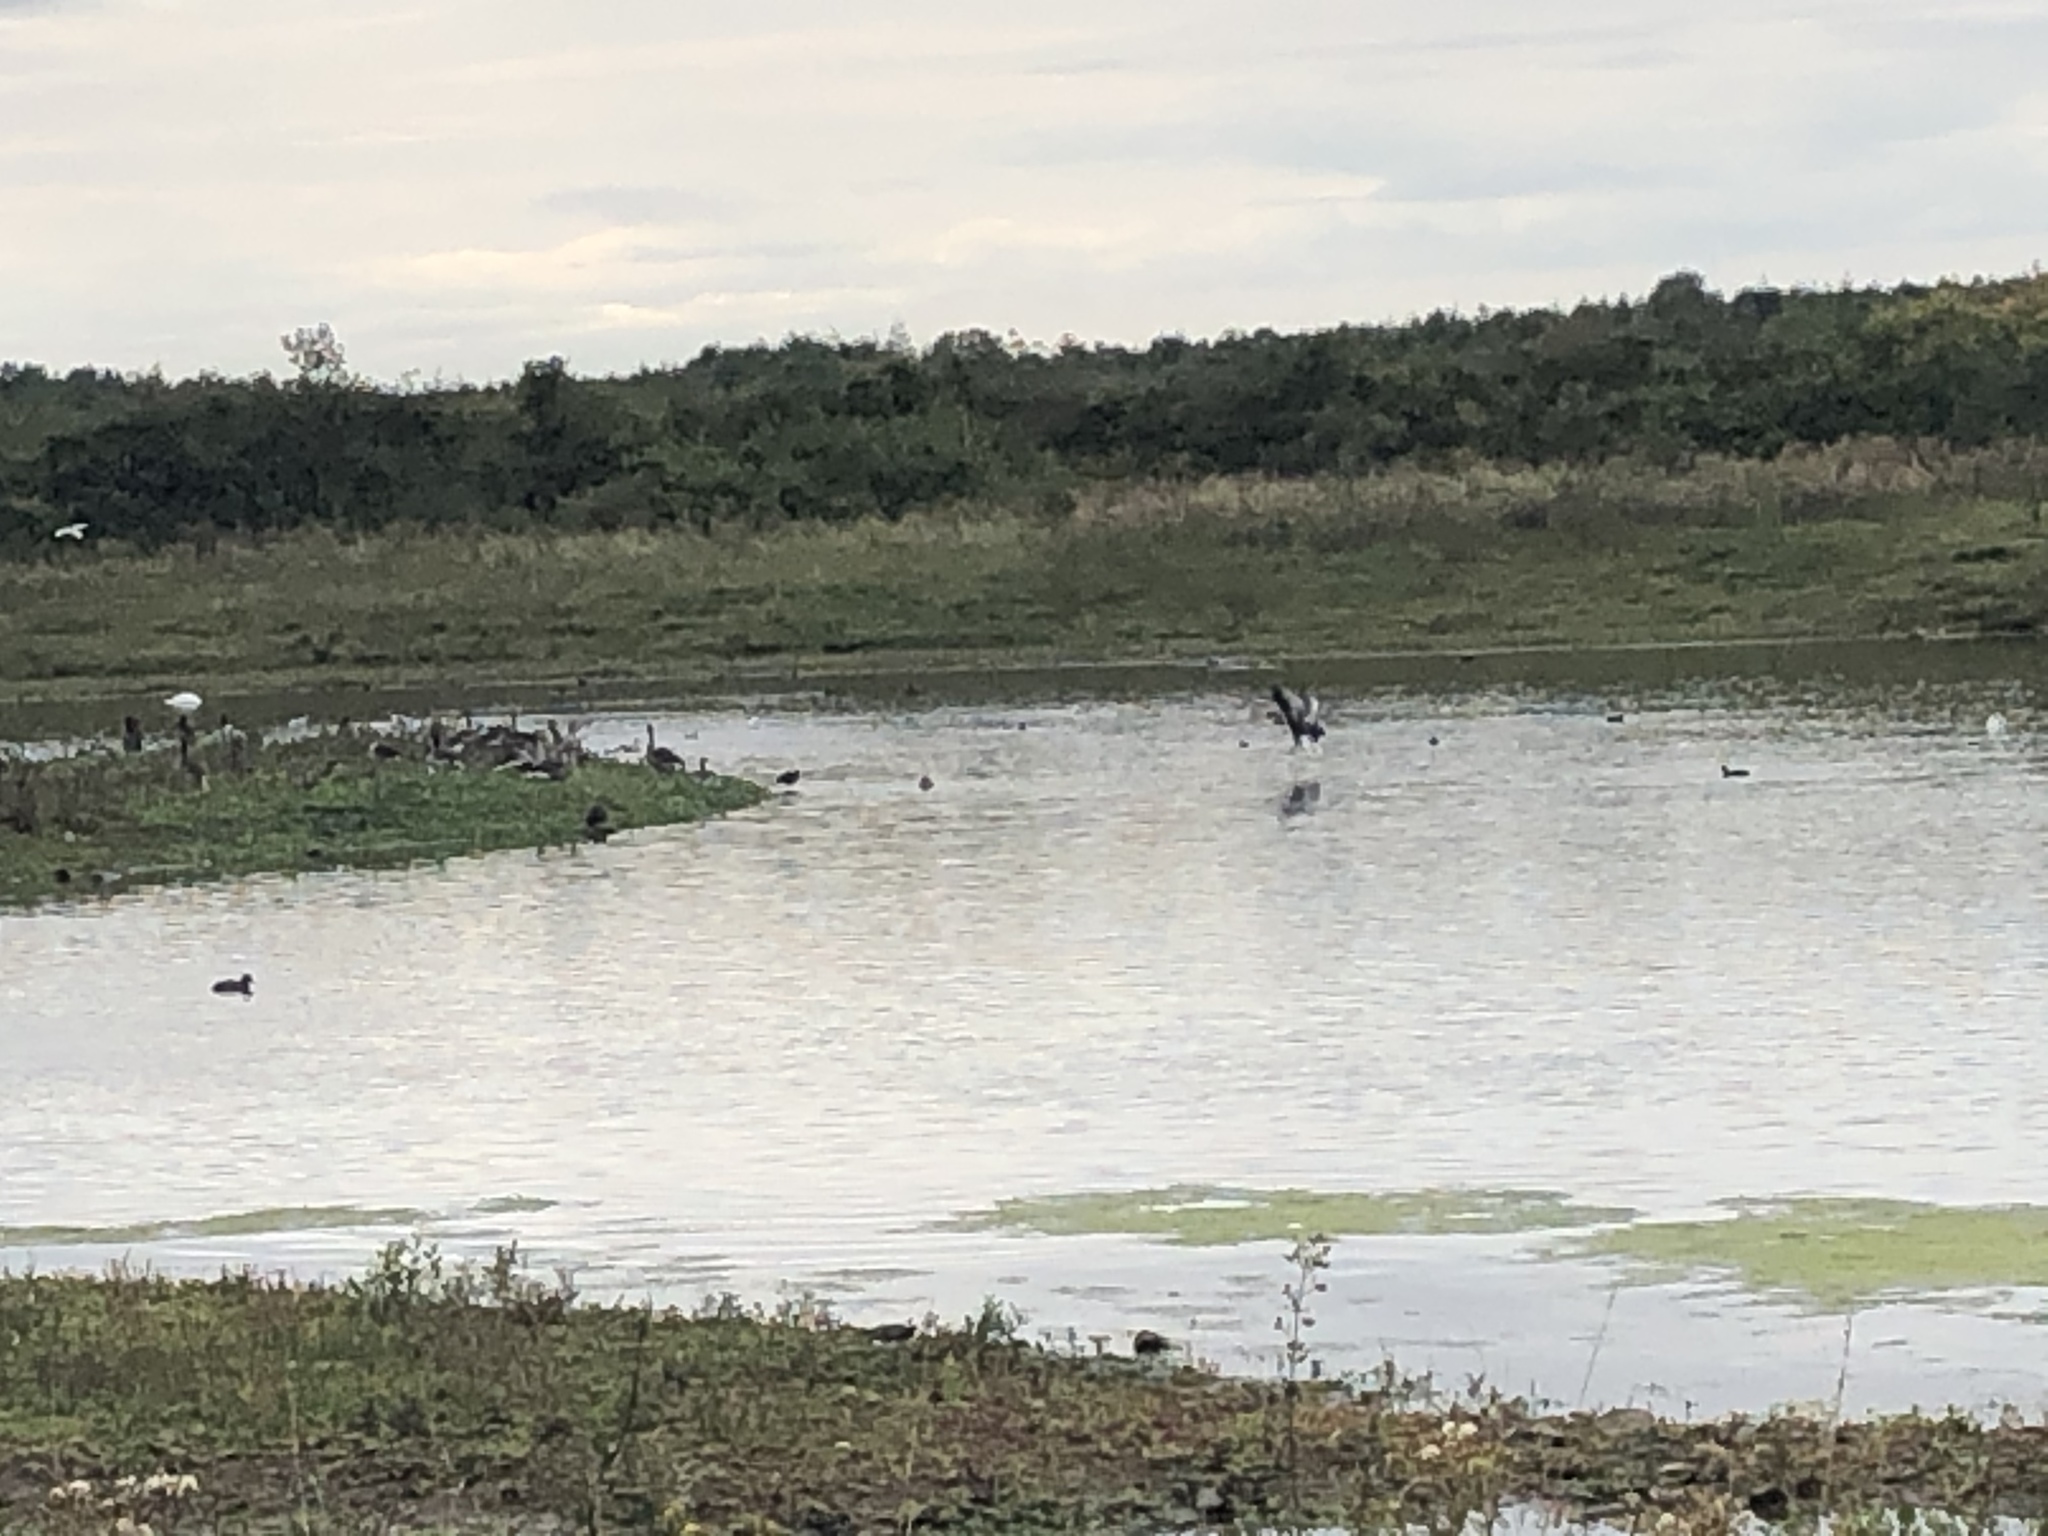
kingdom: Animalia
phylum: Chordata
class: Aves
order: Anseriformes
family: Anatidae
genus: Anser
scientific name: Anser anser
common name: Greylag goose
